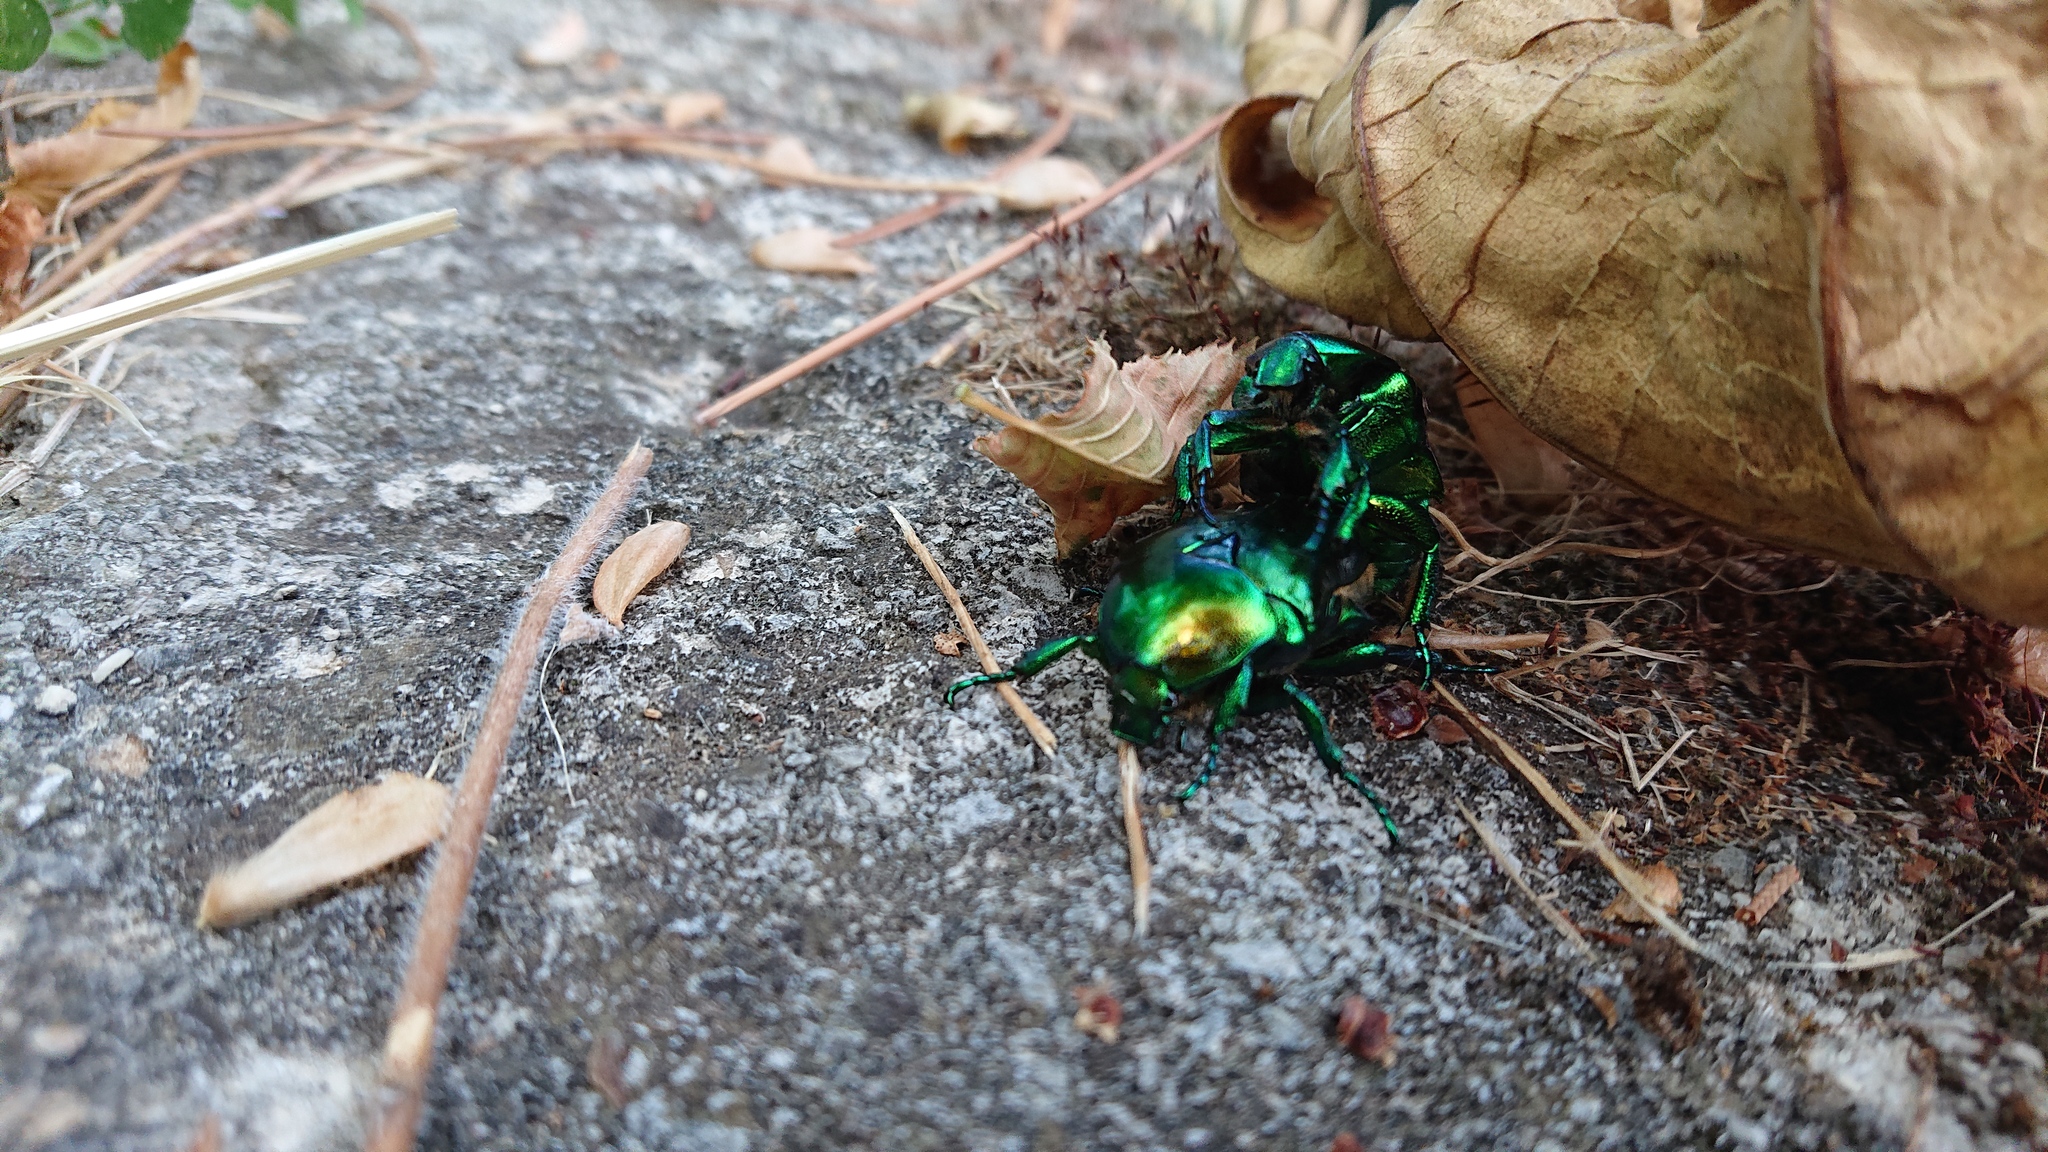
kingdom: Animalia
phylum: Arthropoda
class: Insecta
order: Coleoptera
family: Scarabaeidae
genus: Protaetia
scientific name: Protaetia speciosissima
